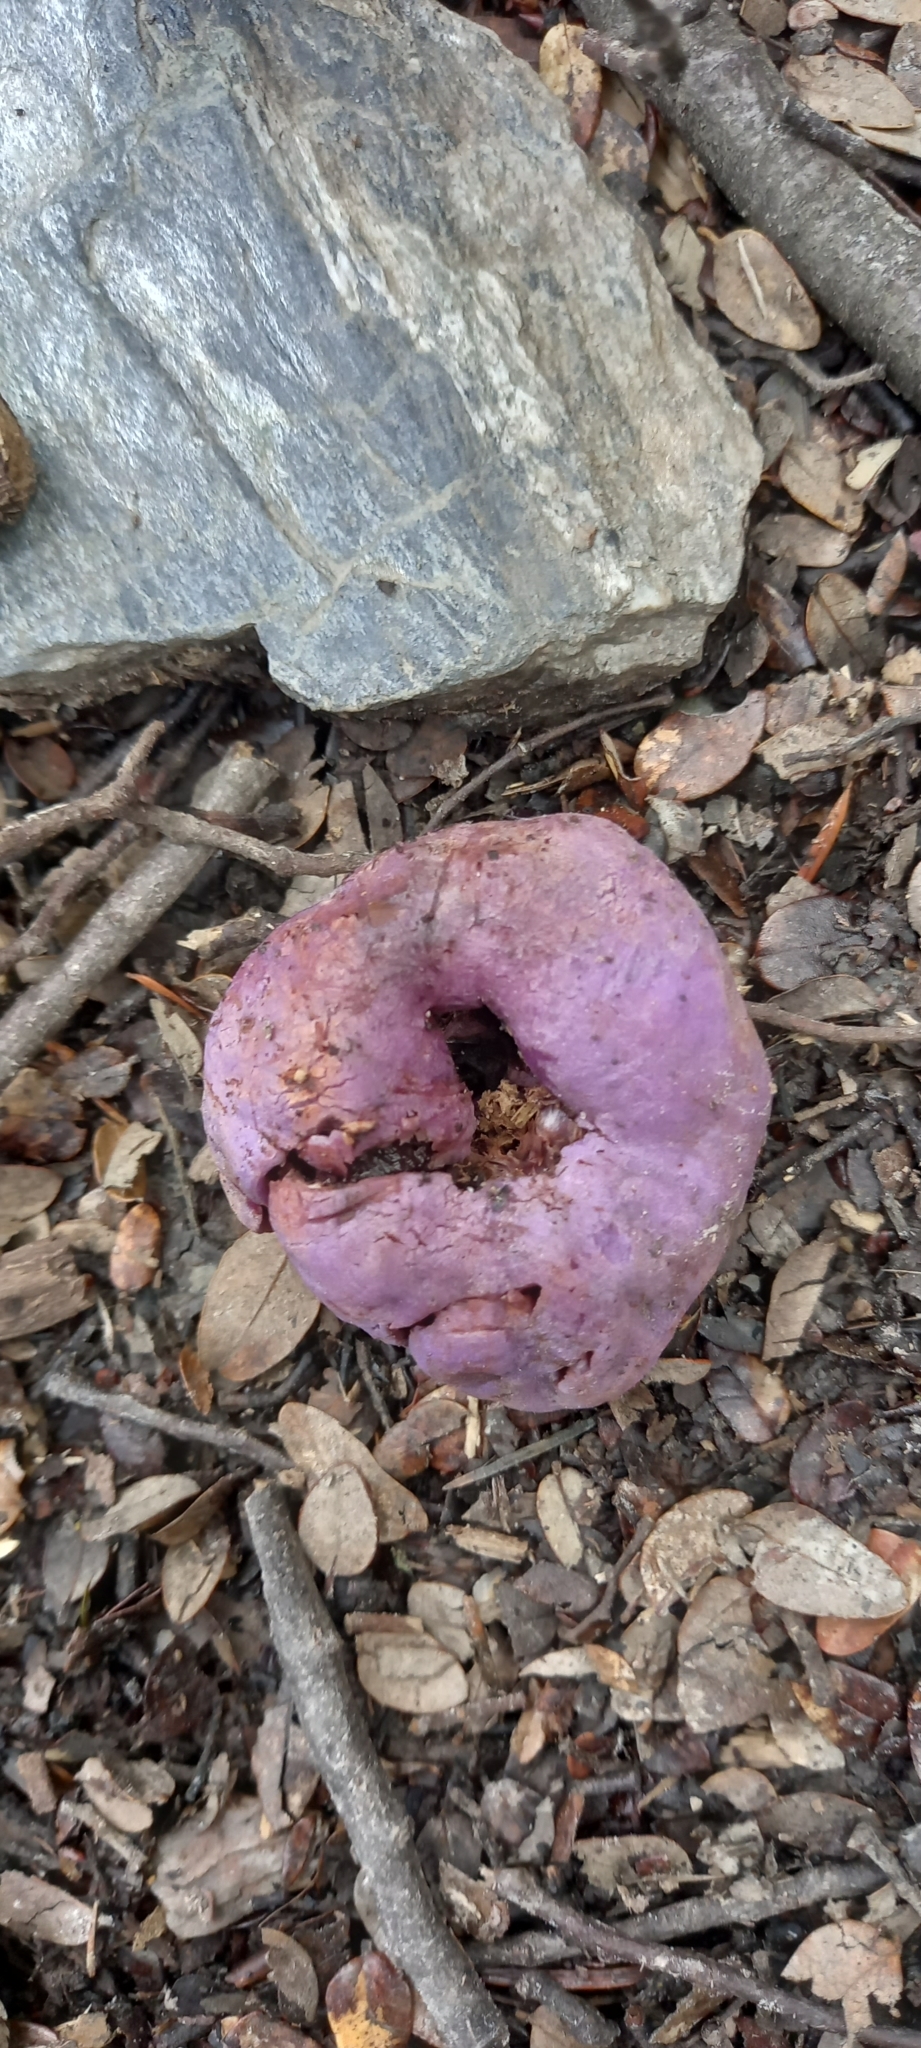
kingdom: Fungi
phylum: Basidiomycota
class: Agaricomycetes
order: Hysterangiales
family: Gallaceaceae
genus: Gallacea
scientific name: Gallacea scleroderma
